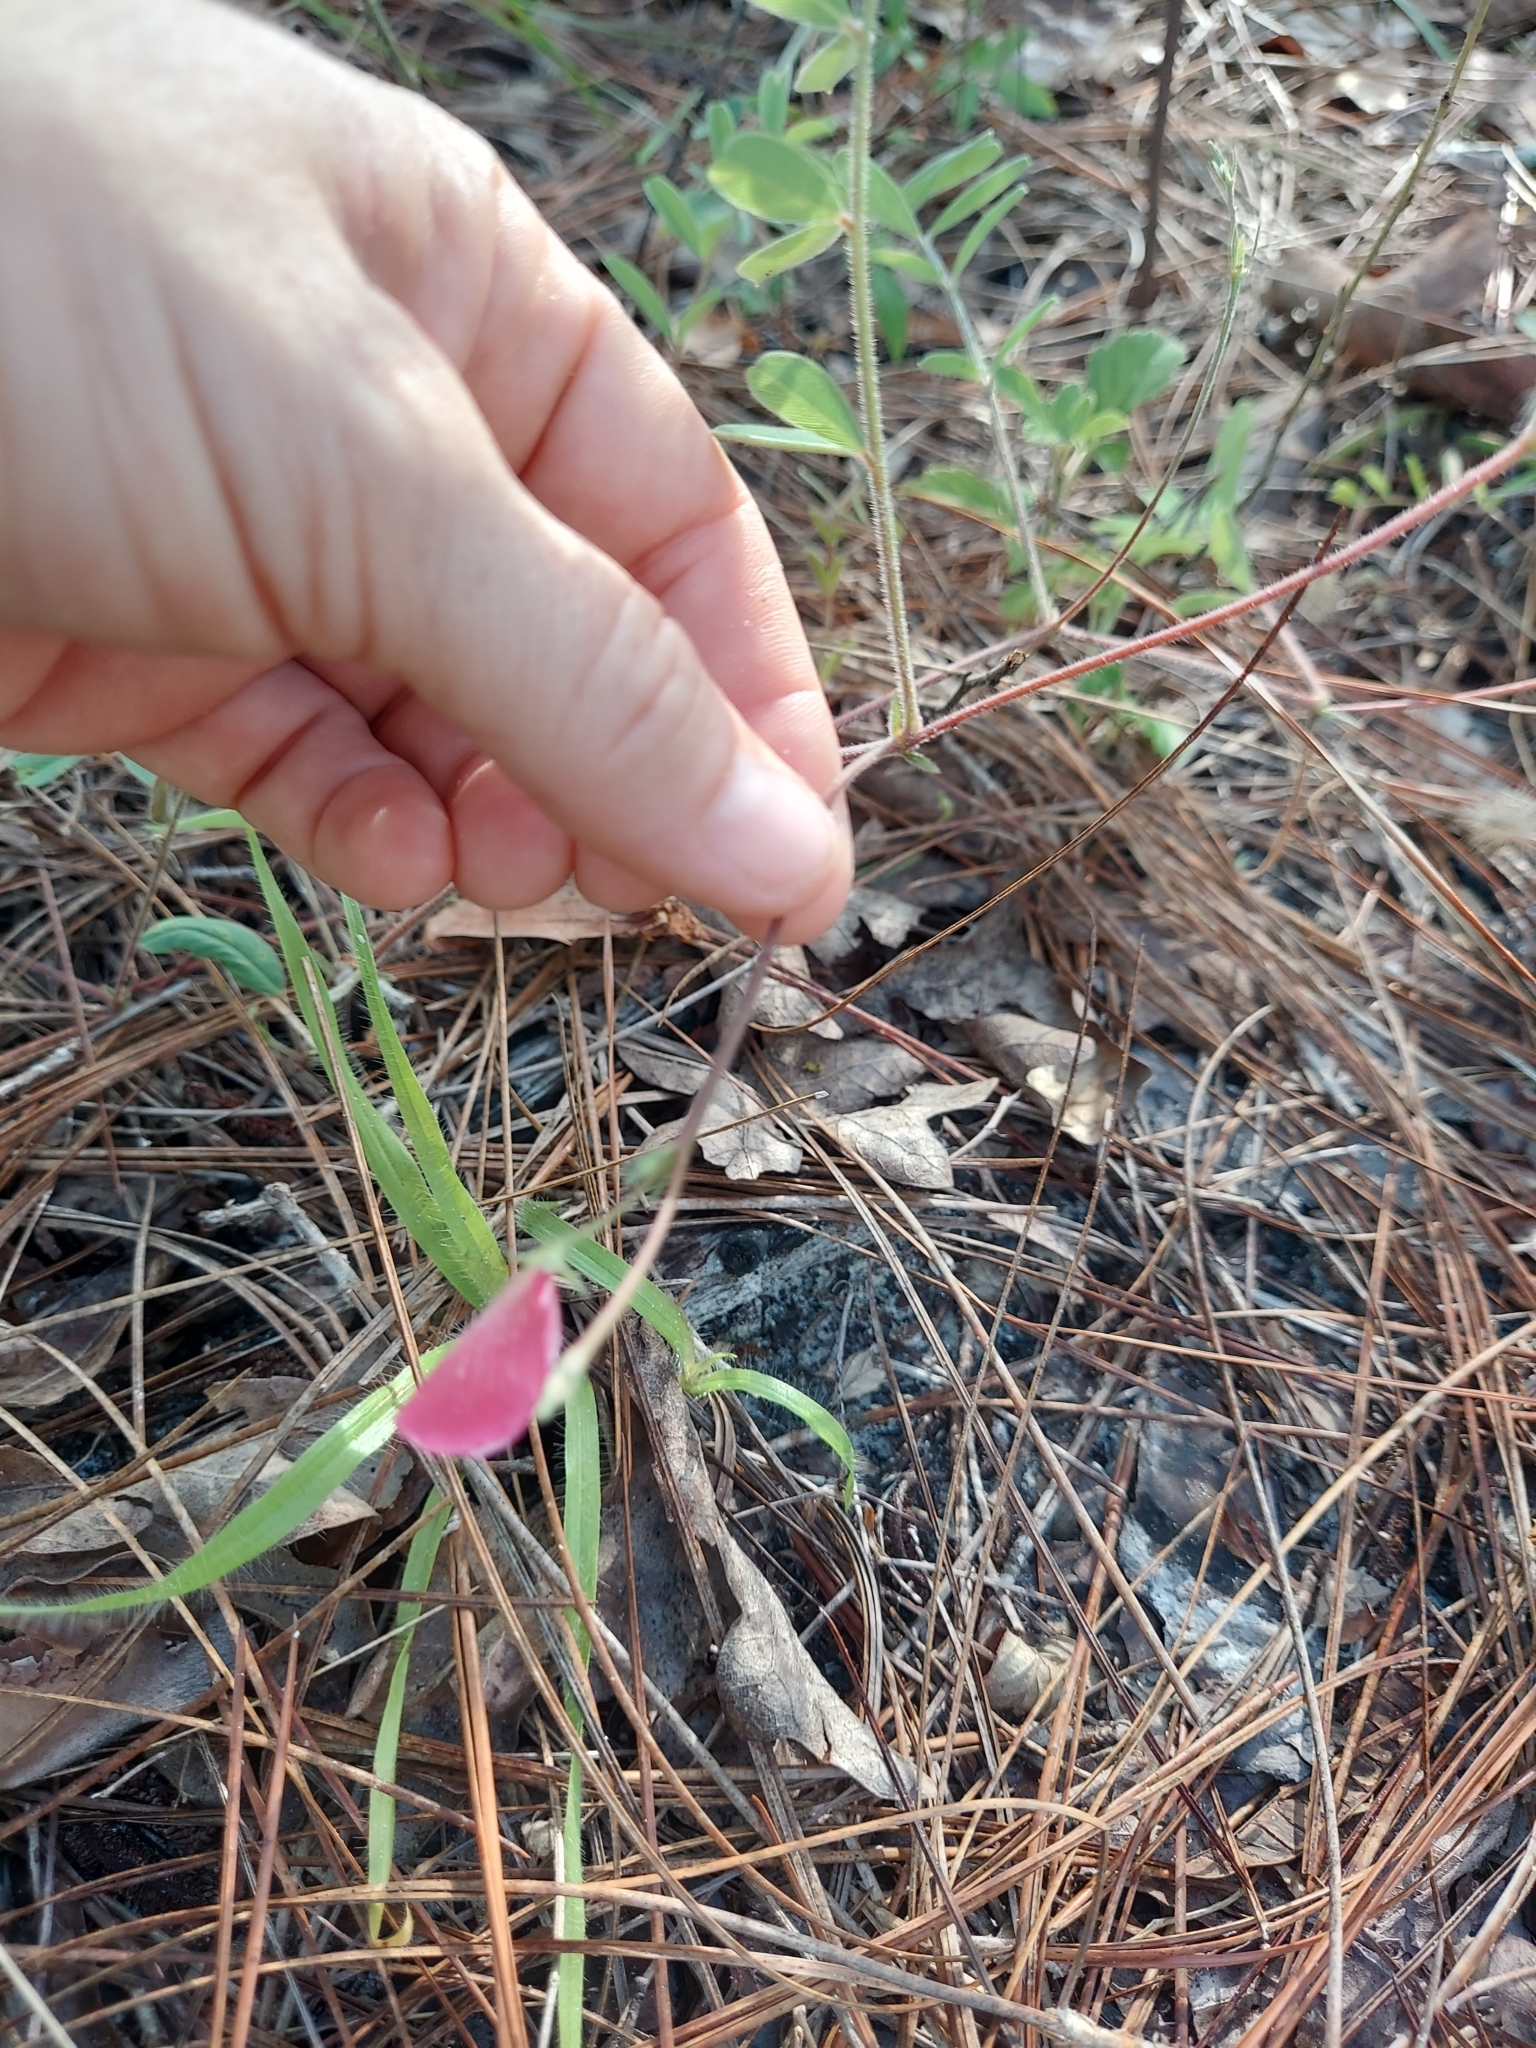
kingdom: Plantae
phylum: Tracheophyta
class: Magnoliopsida
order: Fabales
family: Fabaceae
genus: Tephrosia
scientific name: Tephrosia hispidula
